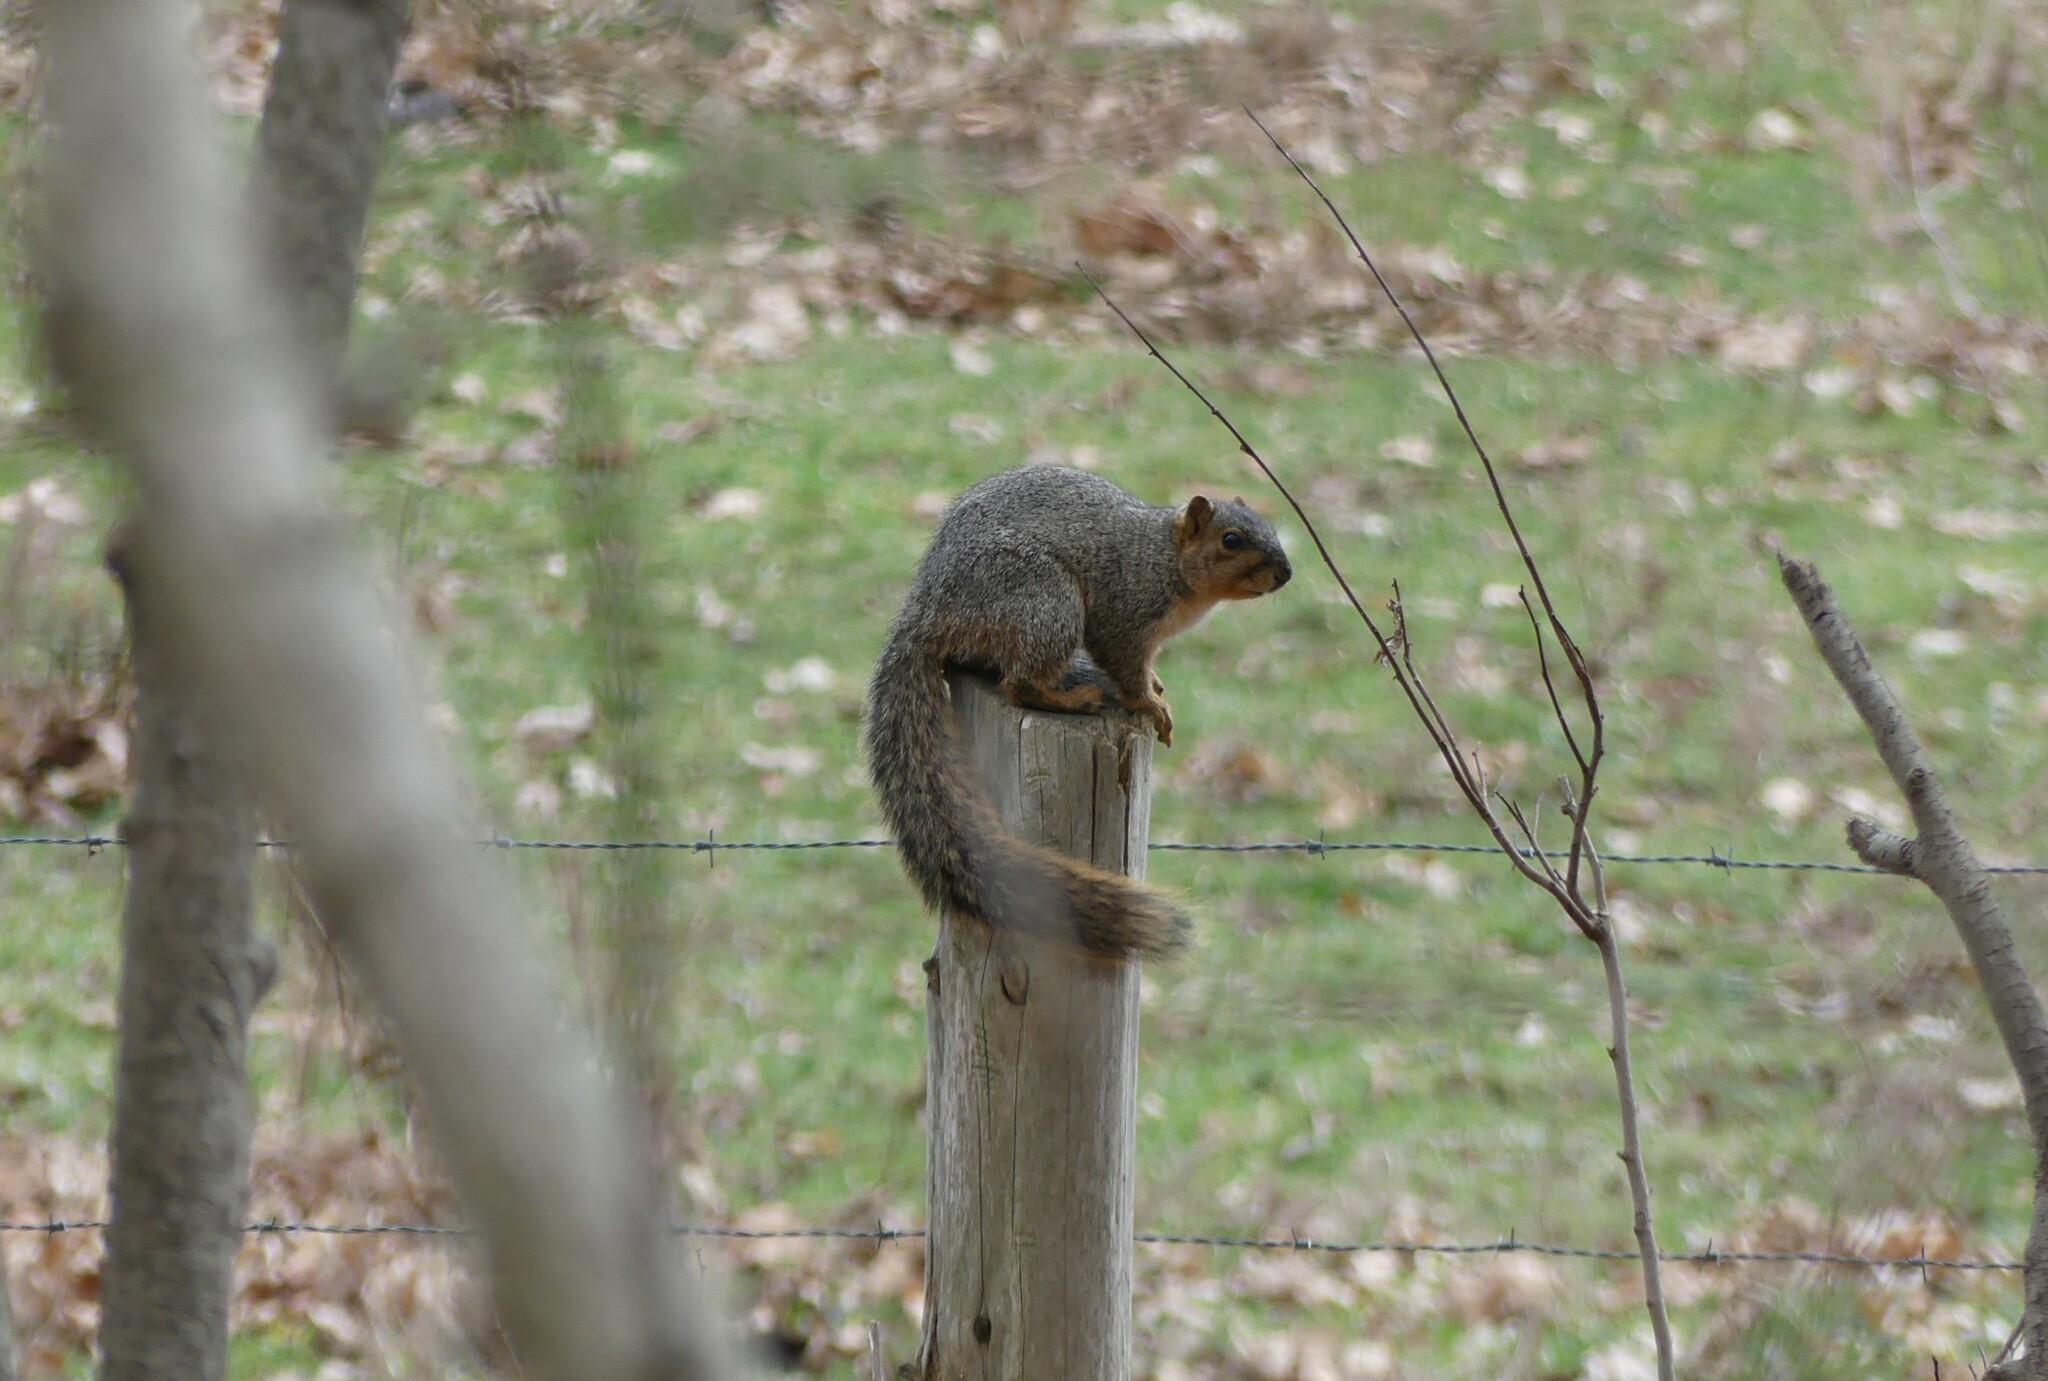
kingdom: Animalia
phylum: Chordata
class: Mammalia
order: Rodentia
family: Sciuridae
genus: Sciurus
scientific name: Sciurus niger
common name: Fox squirrel
